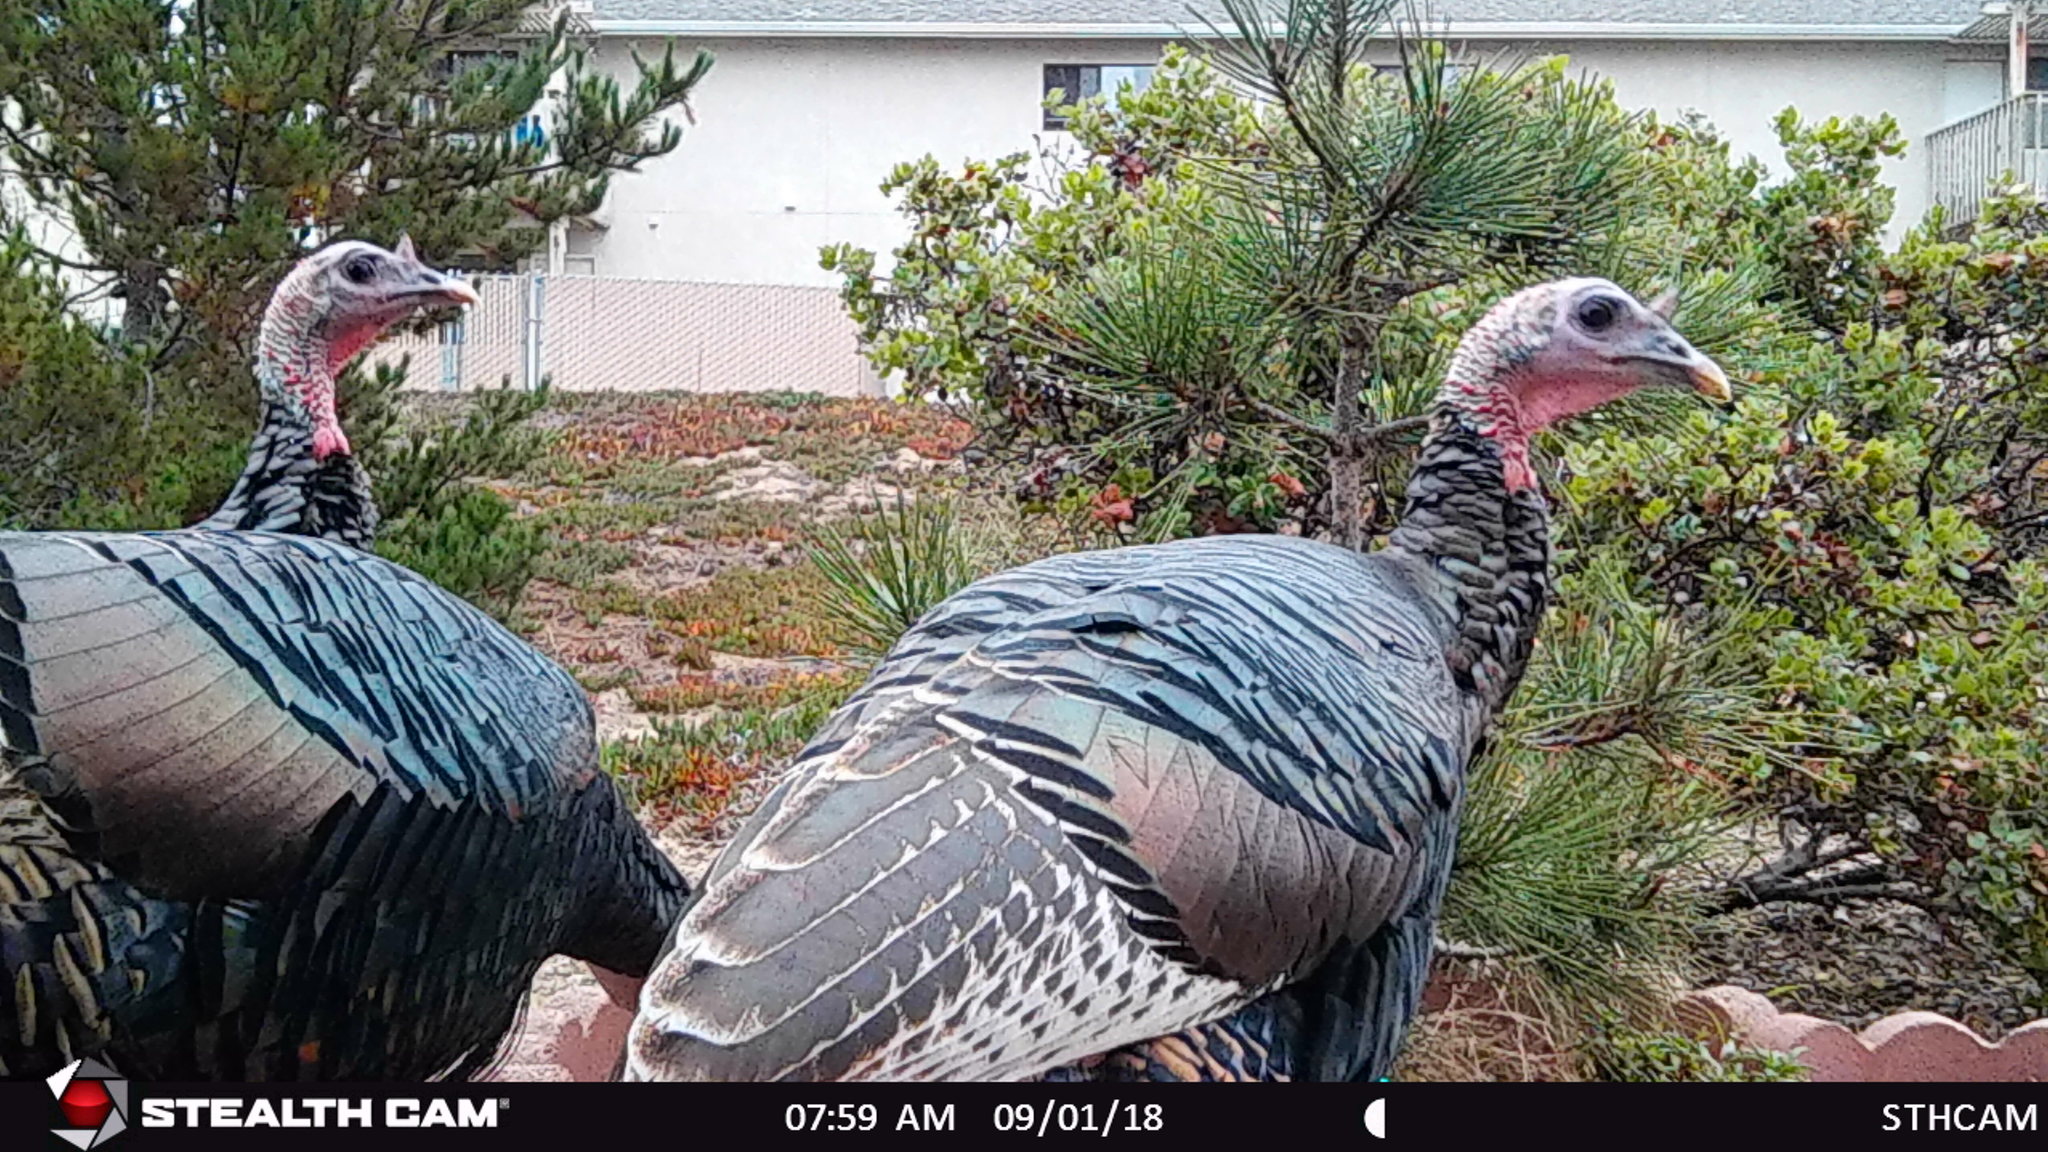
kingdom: Animalia
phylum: Chordata
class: Aves
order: Galliformes
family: Phasianidae
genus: Meleagris
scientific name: Meleagris gallopavo
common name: Wild turkey
